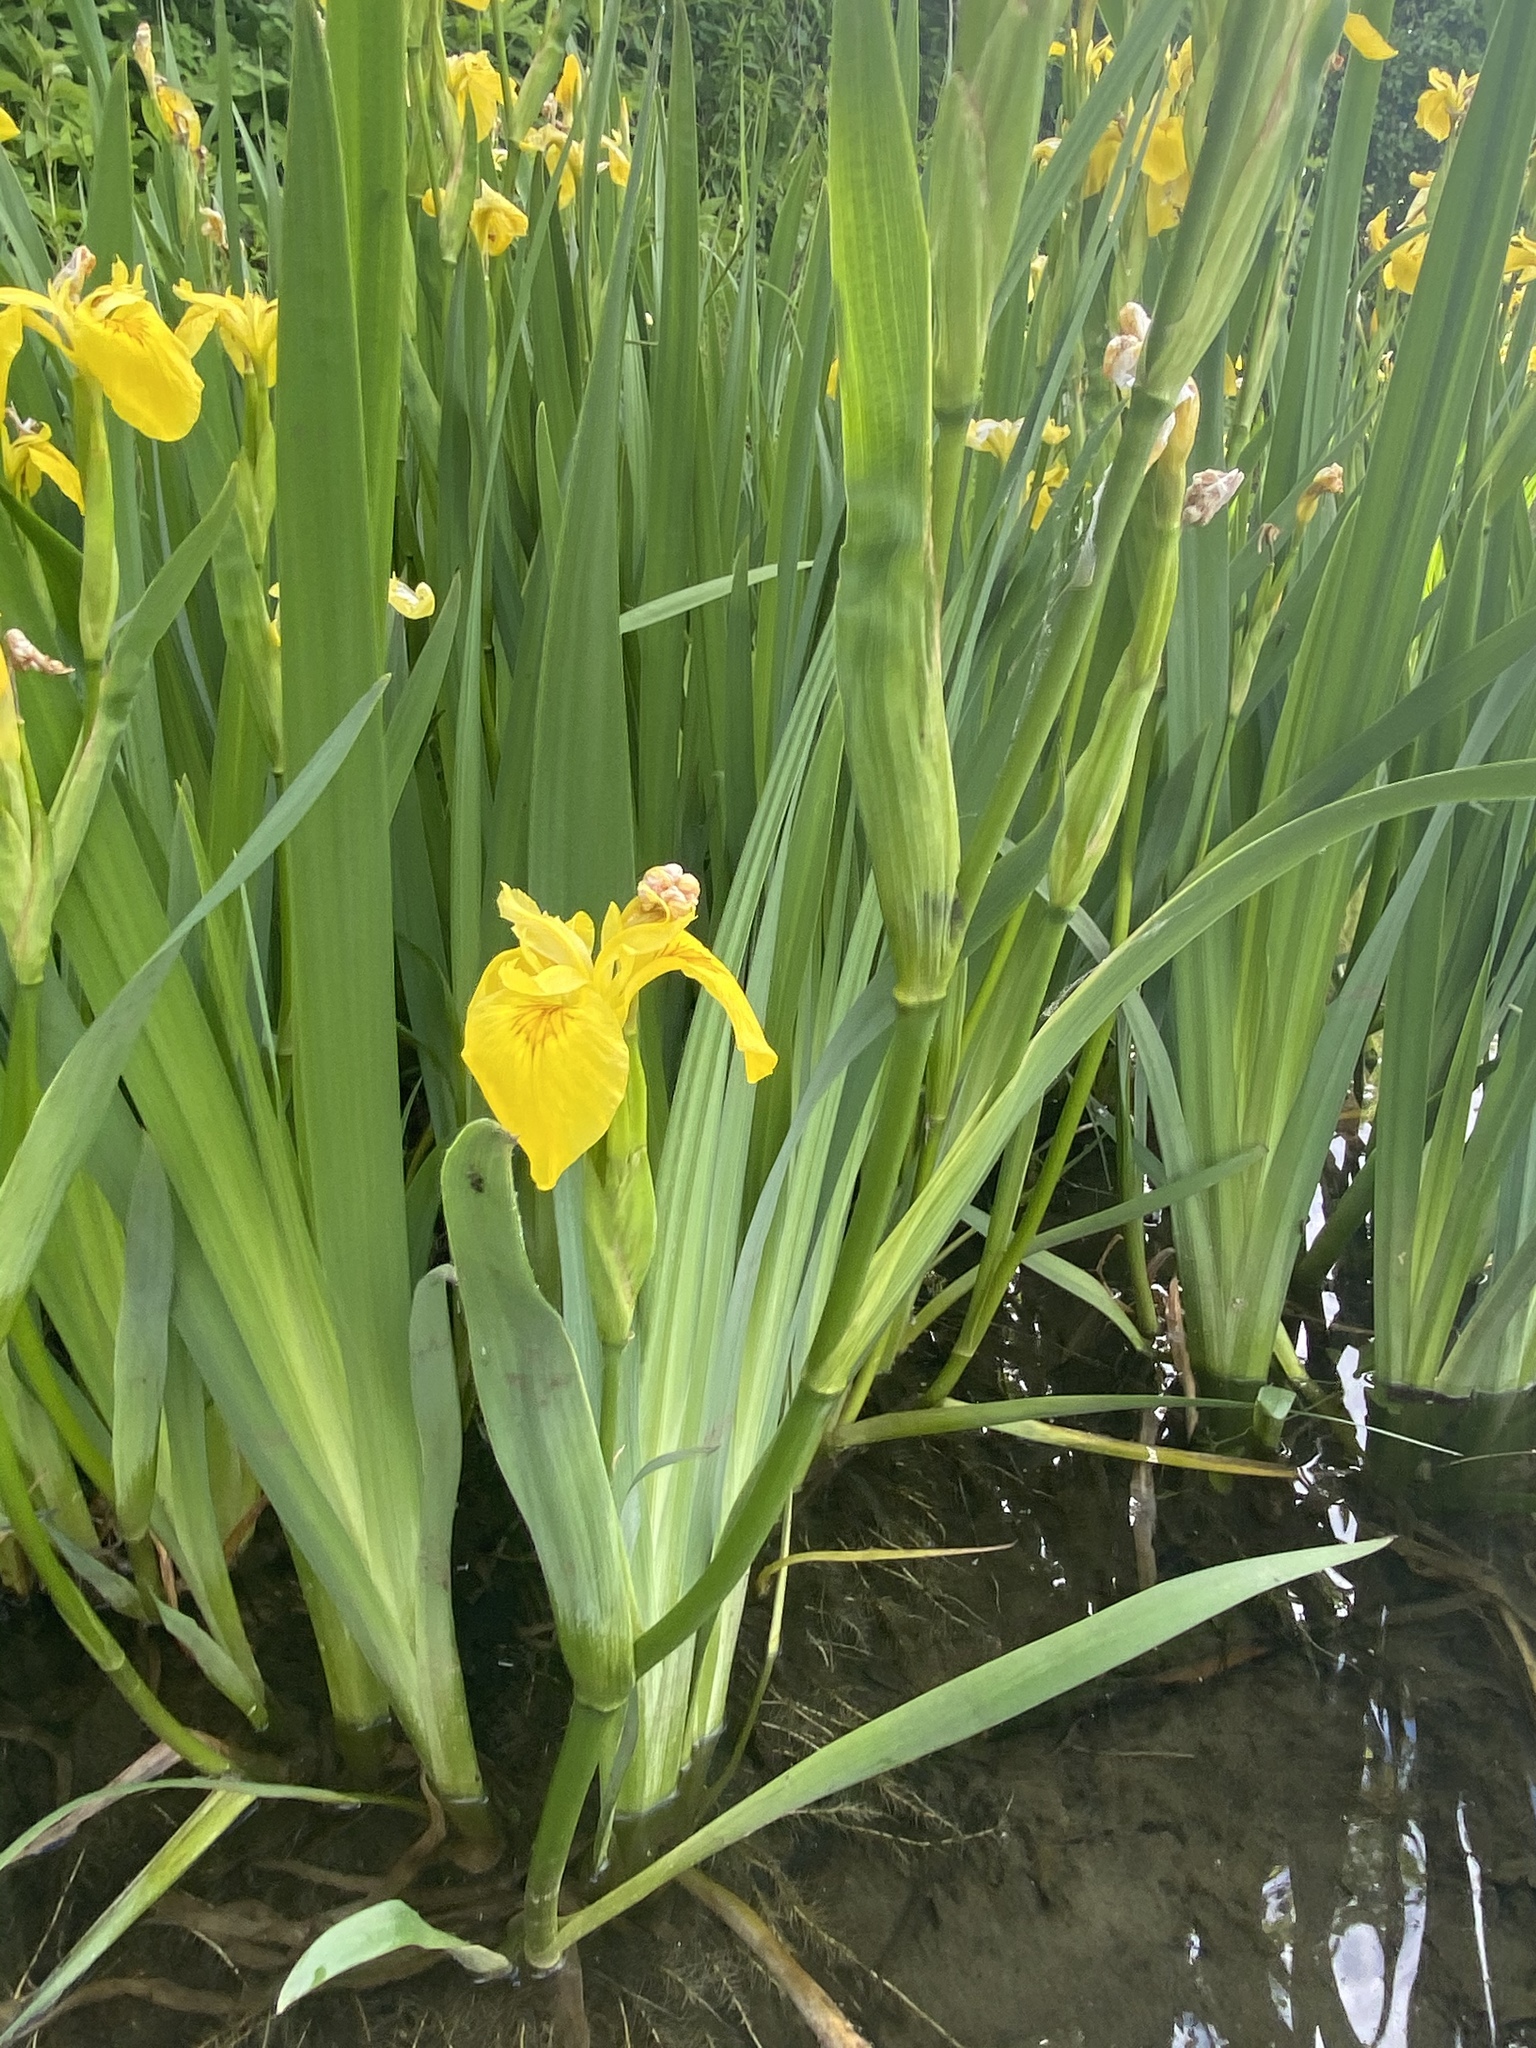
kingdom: Plantae
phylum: Tracheophyta
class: Liliopsida
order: Asparagales
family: Iridaceae
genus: Iris
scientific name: Iris pseudacorus
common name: Yellow flag
